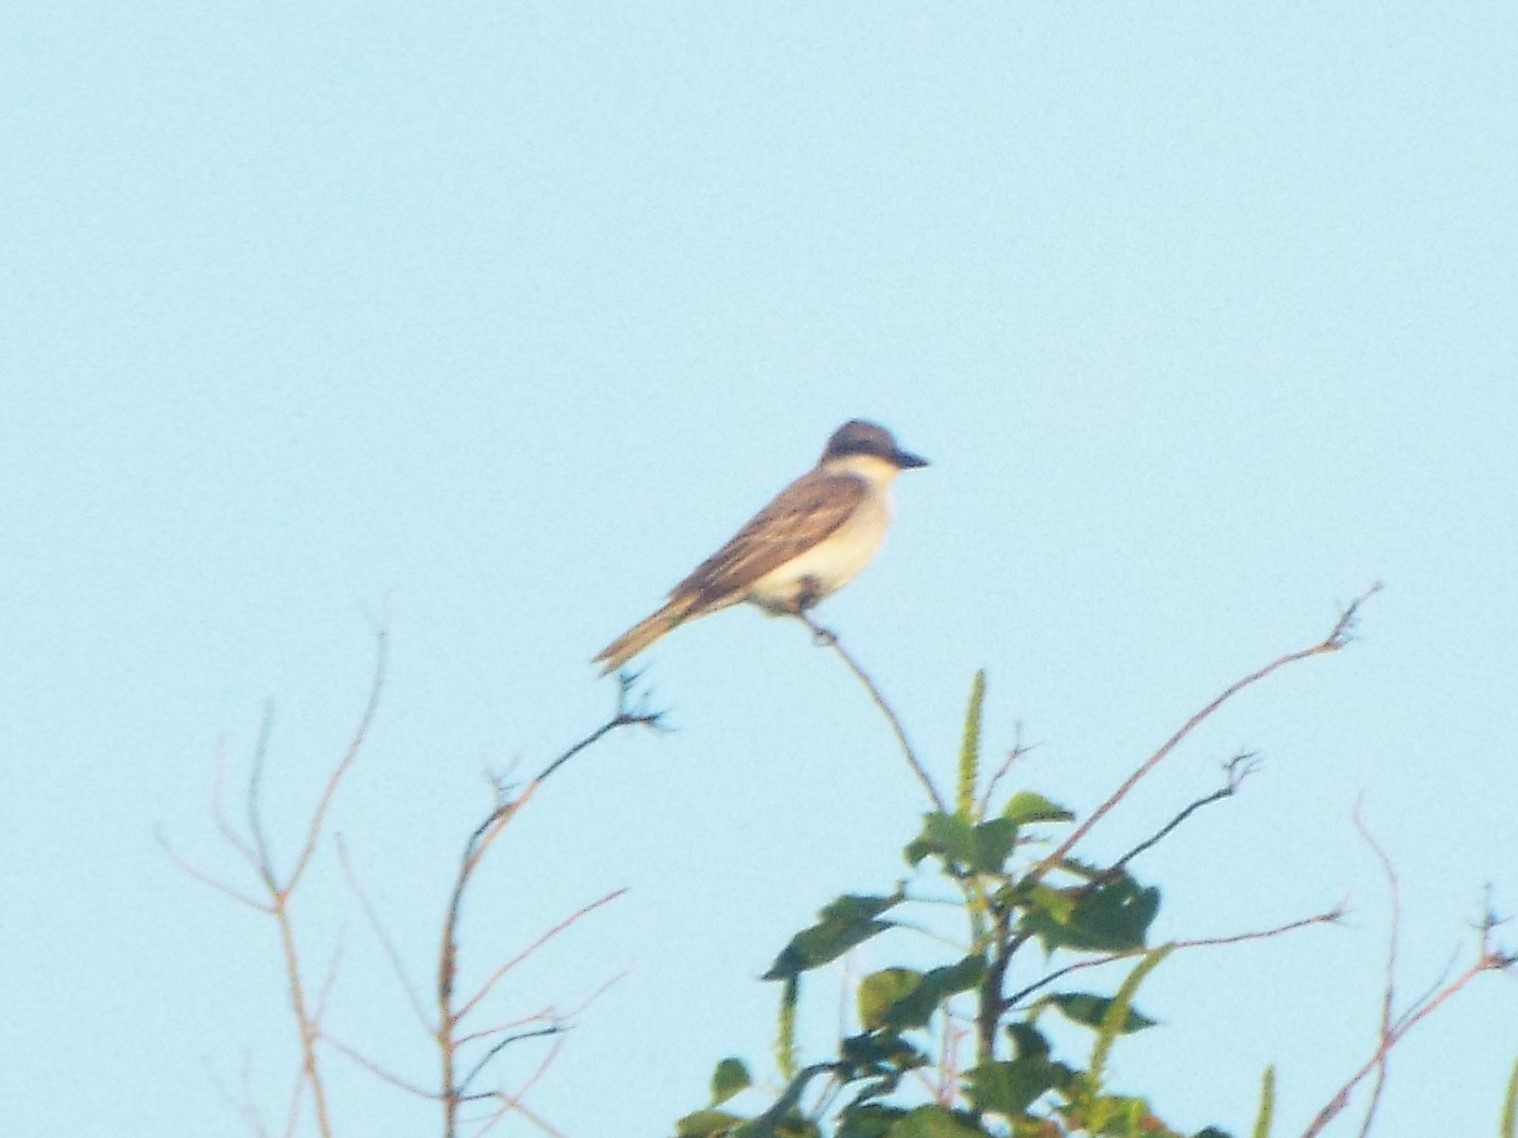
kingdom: Animalia
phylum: Chordata
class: Aves
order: Passeriformes
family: Tyrannidae
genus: Tyrannus
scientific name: Tyrannus dominicensis
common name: Gray kingbird
